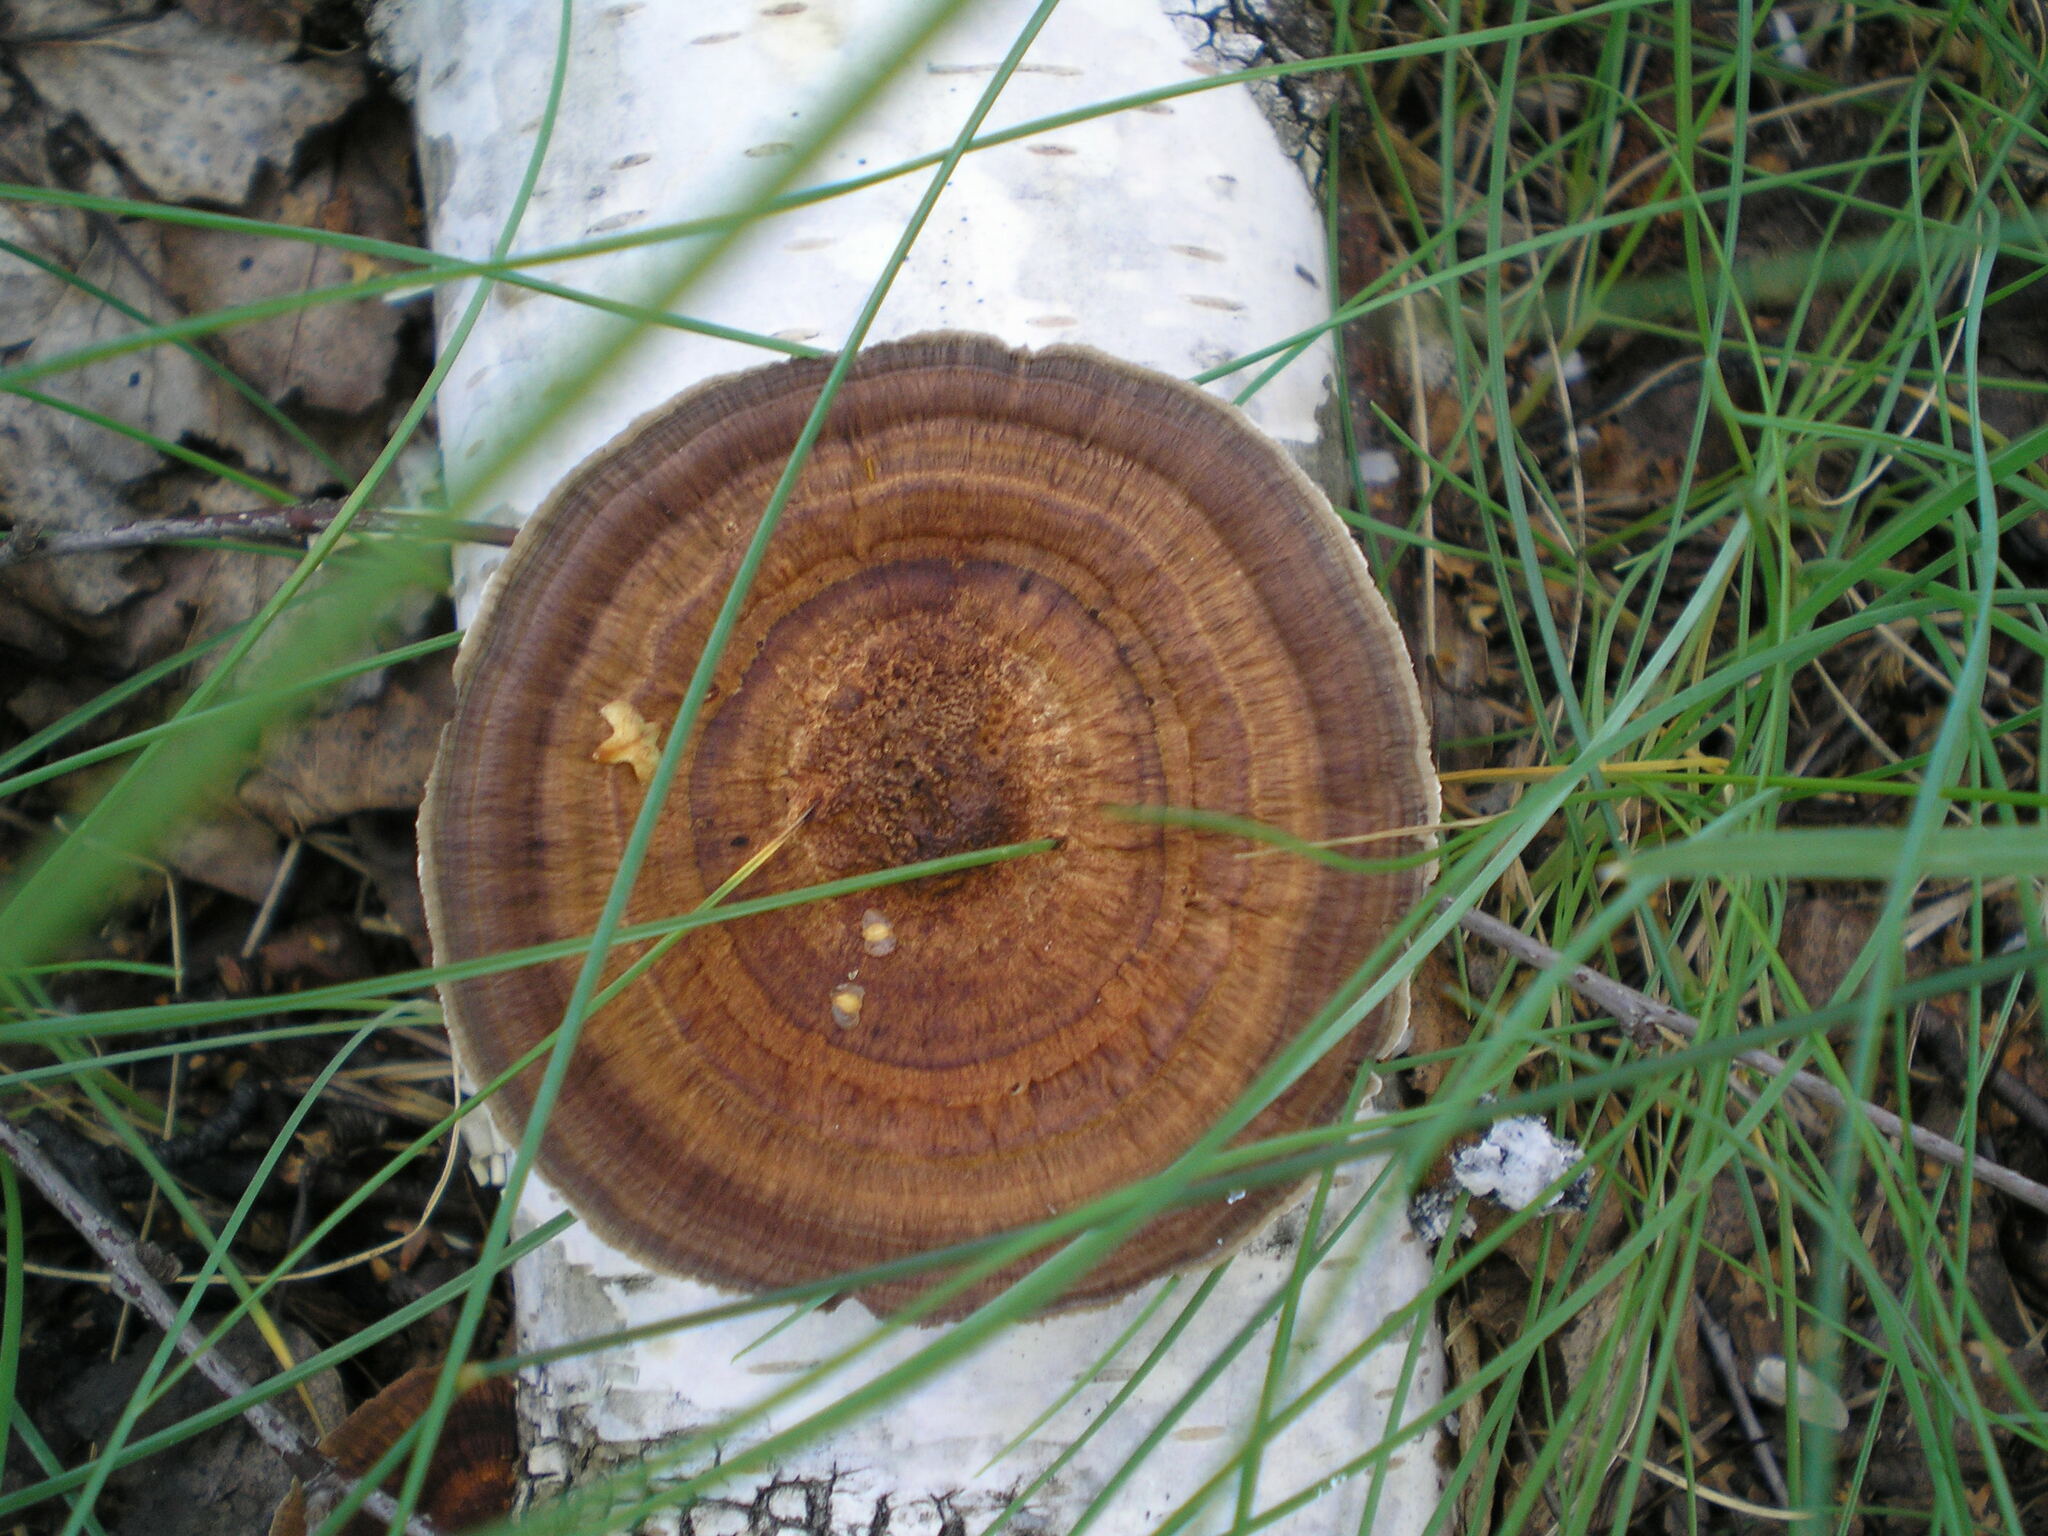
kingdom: Fungi
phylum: Basidiomycota
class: Agaricomycetes
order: Polyporales
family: Polyporaceae
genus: Daedaleopsis
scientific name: Daedaleopsis tricolor
